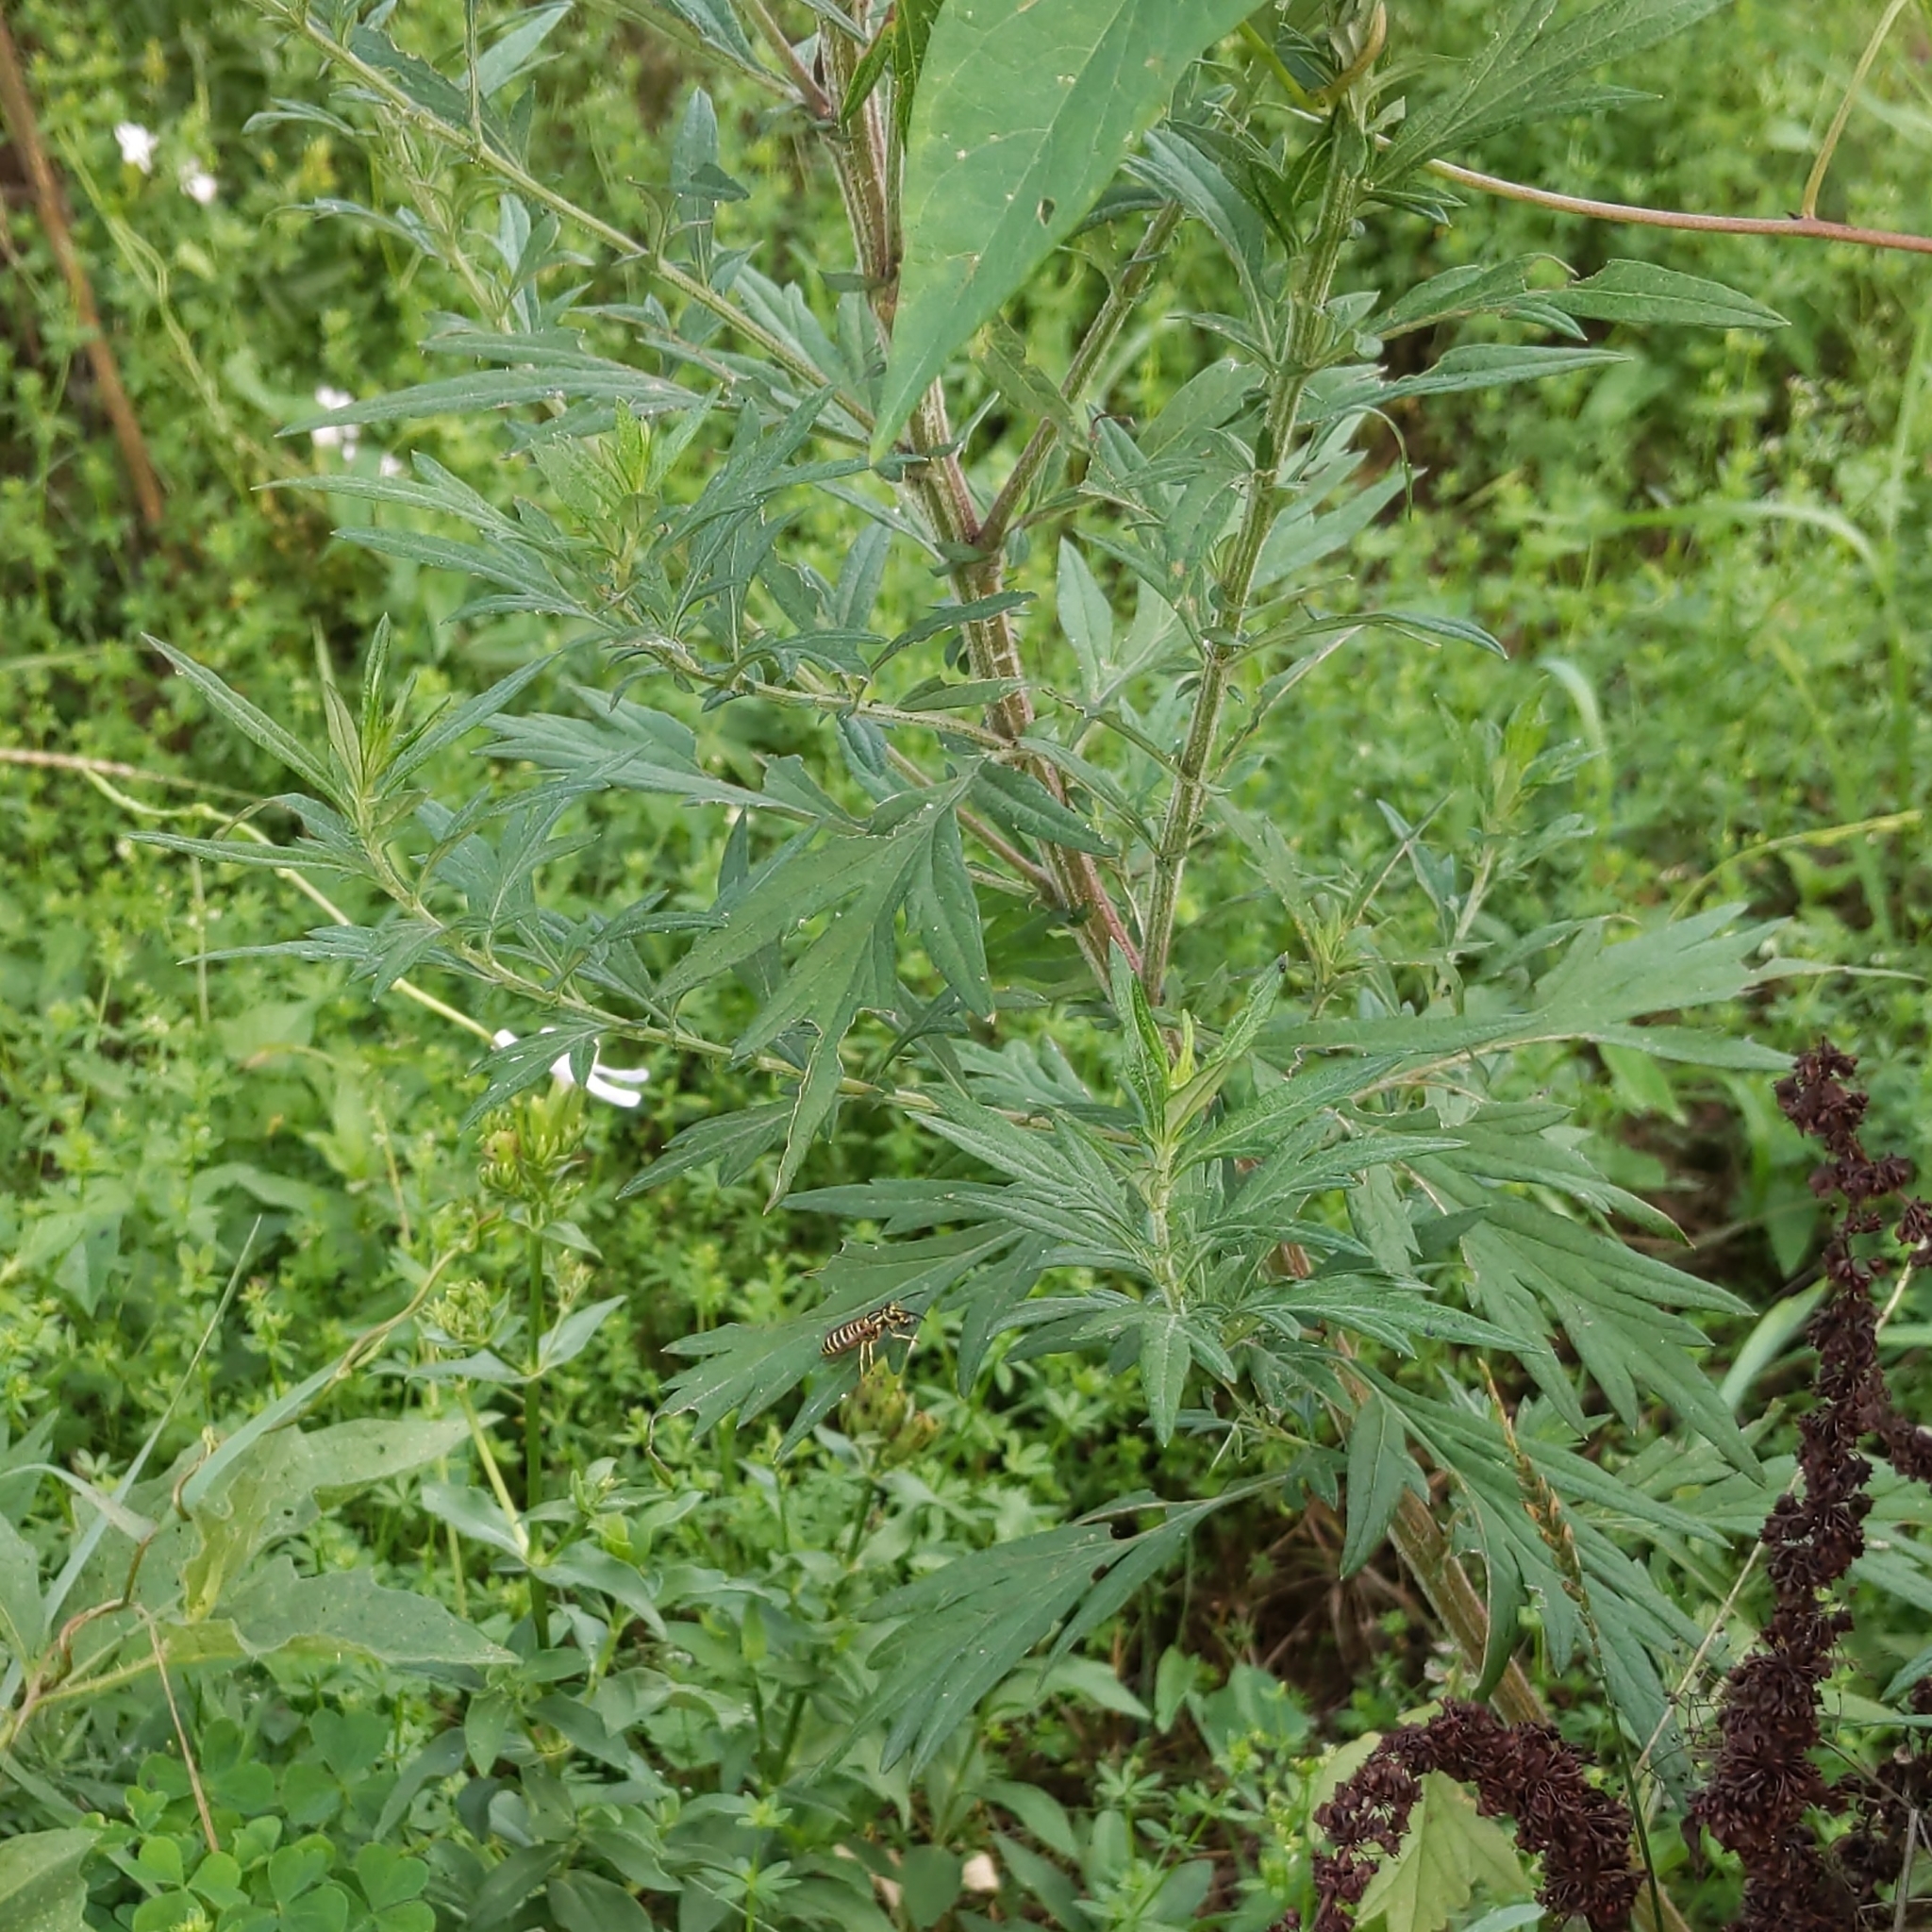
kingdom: Plantae
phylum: Tracheophyta
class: Magnoliopsida
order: Asterales
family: Asteraceae
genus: Artemisia
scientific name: Artemisia vulgaris
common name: Mugwort
